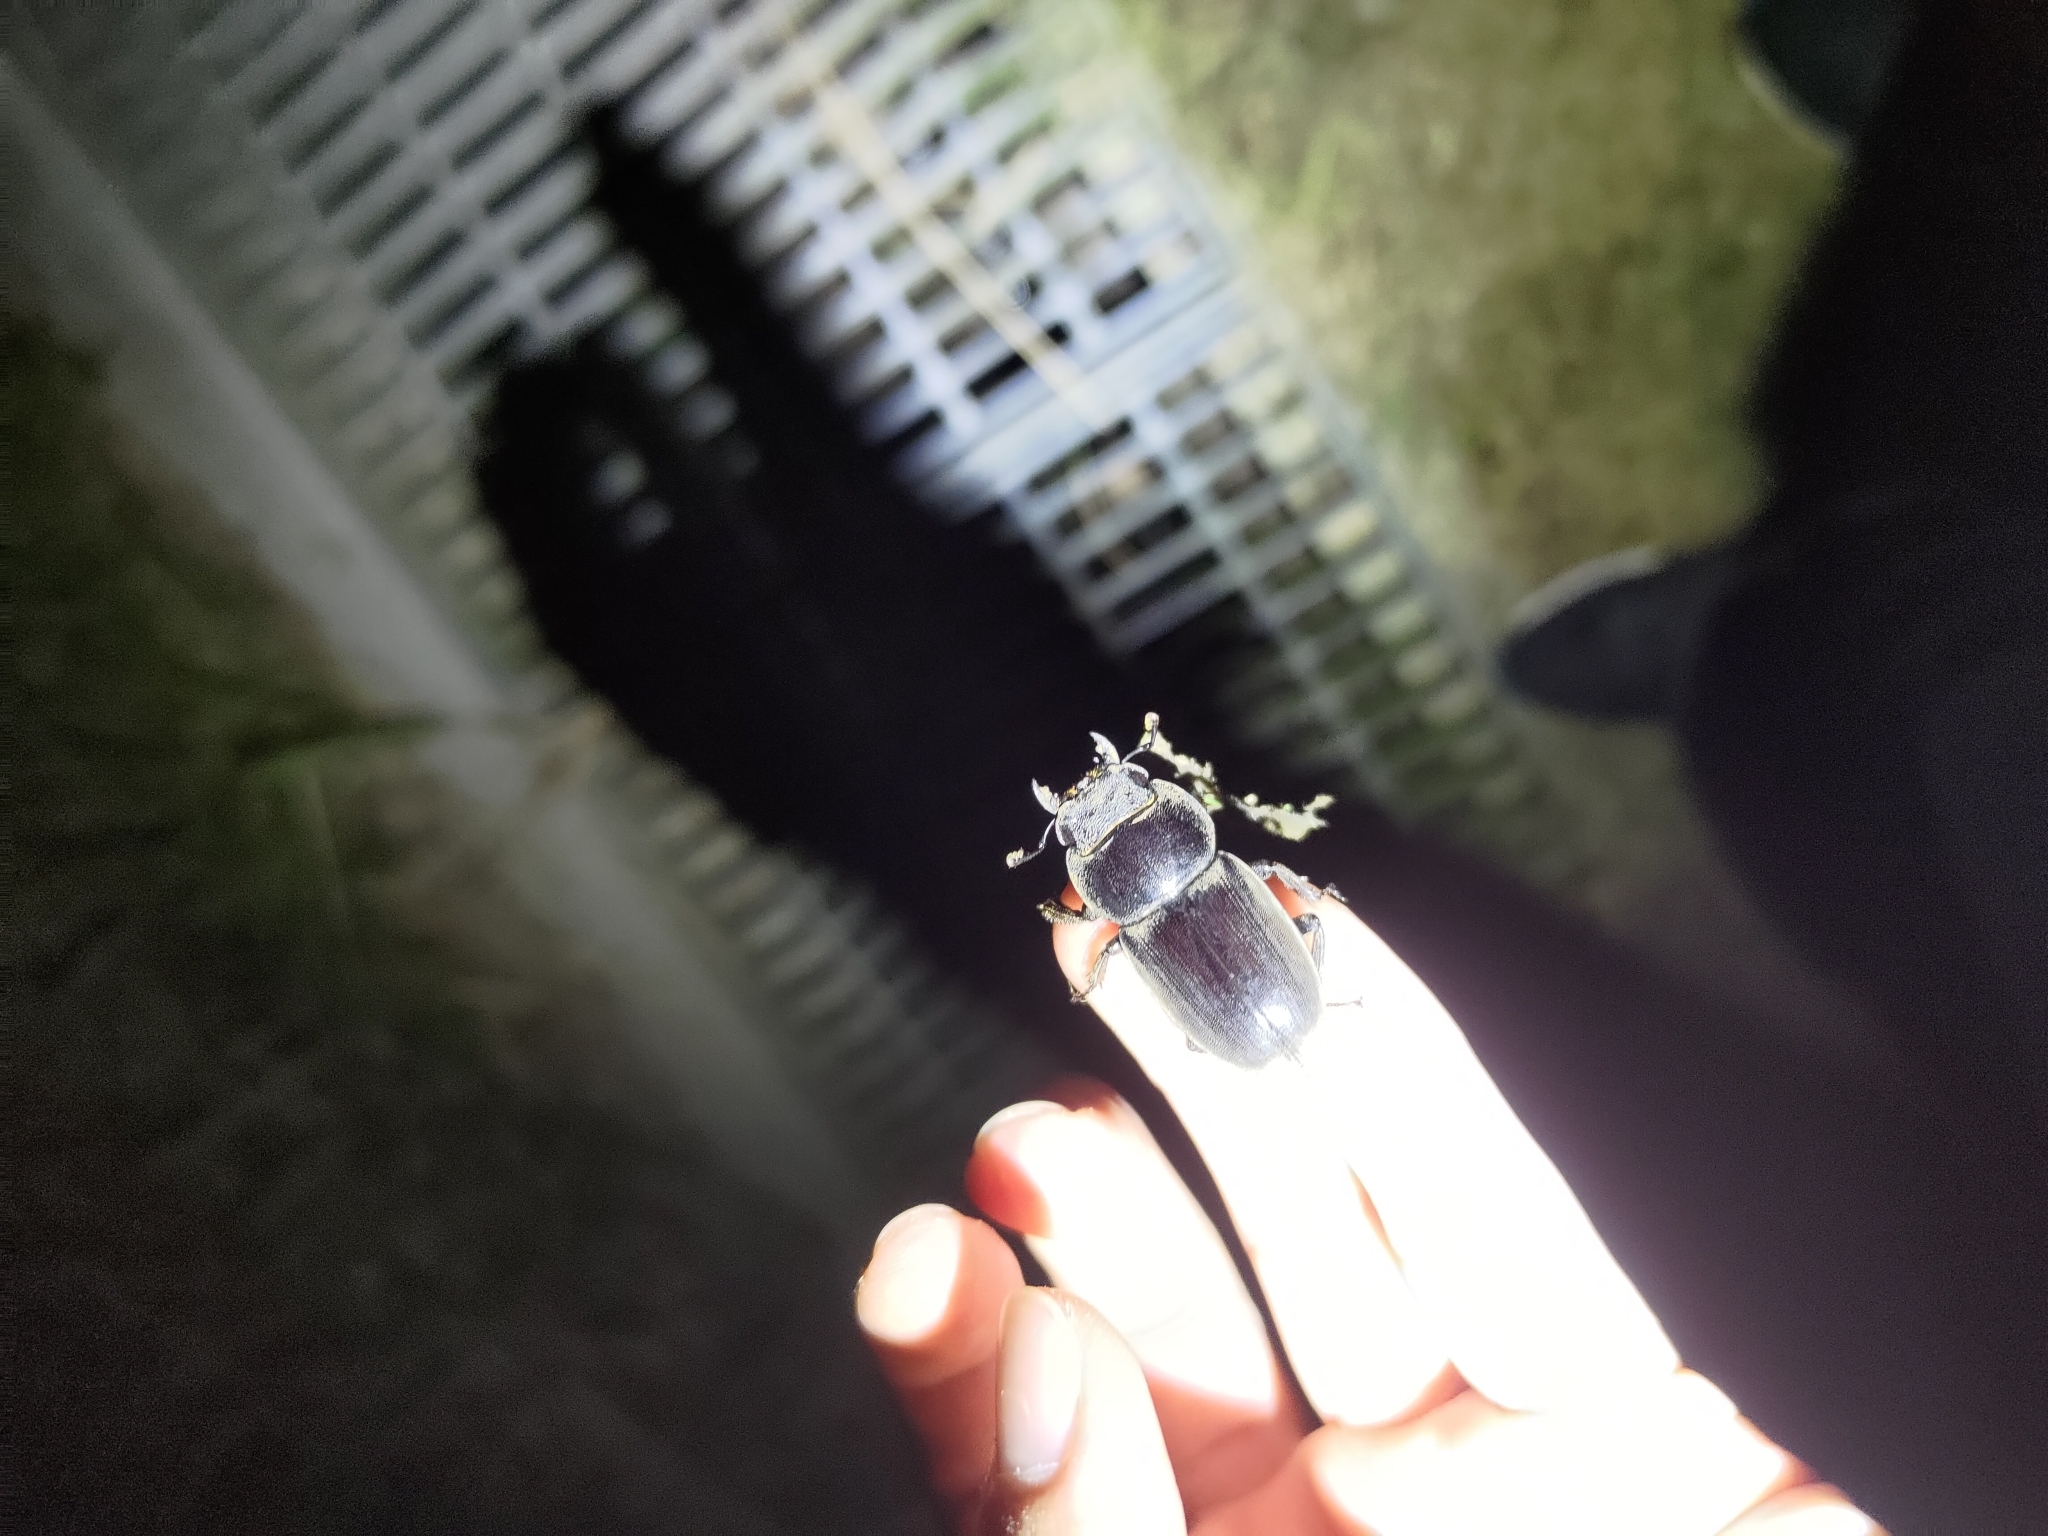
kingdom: Animalia
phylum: Arthropoda
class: Insecta
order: Coleoptera
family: Lucanidae
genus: Serrognathus
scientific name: Serrognathus titanus
